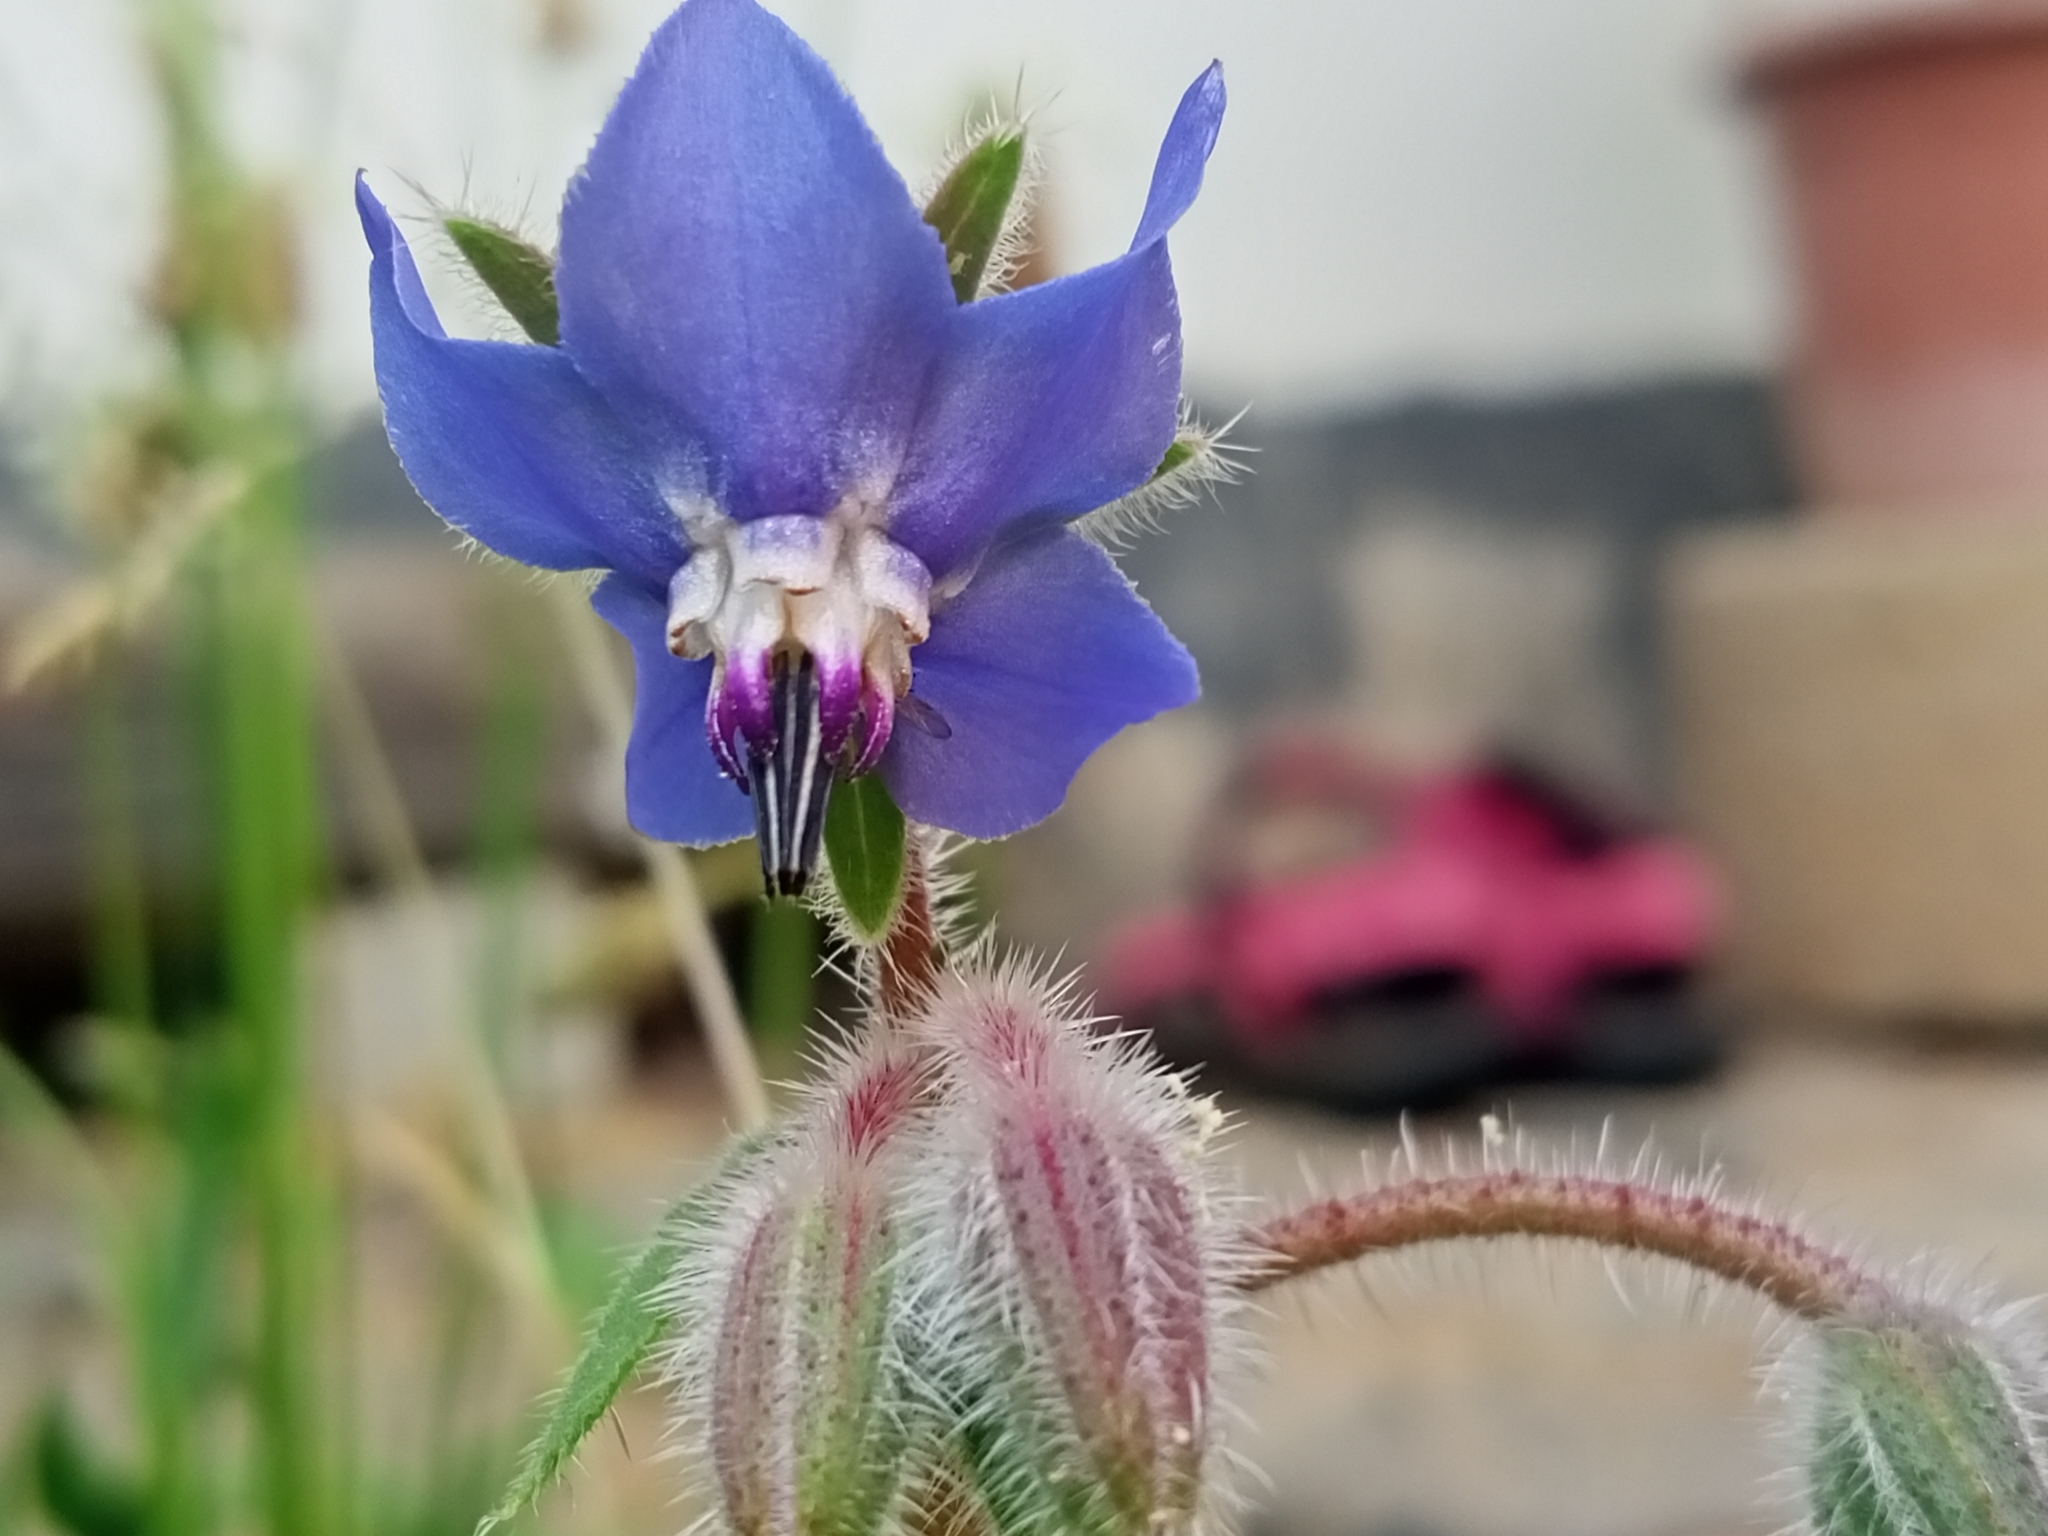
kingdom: Plantae
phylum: Tracheophyta
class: Magnoliopsida
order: Boraginales
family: Boraginaceae
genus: Borago
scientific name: Borago officinalis
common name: Borage
